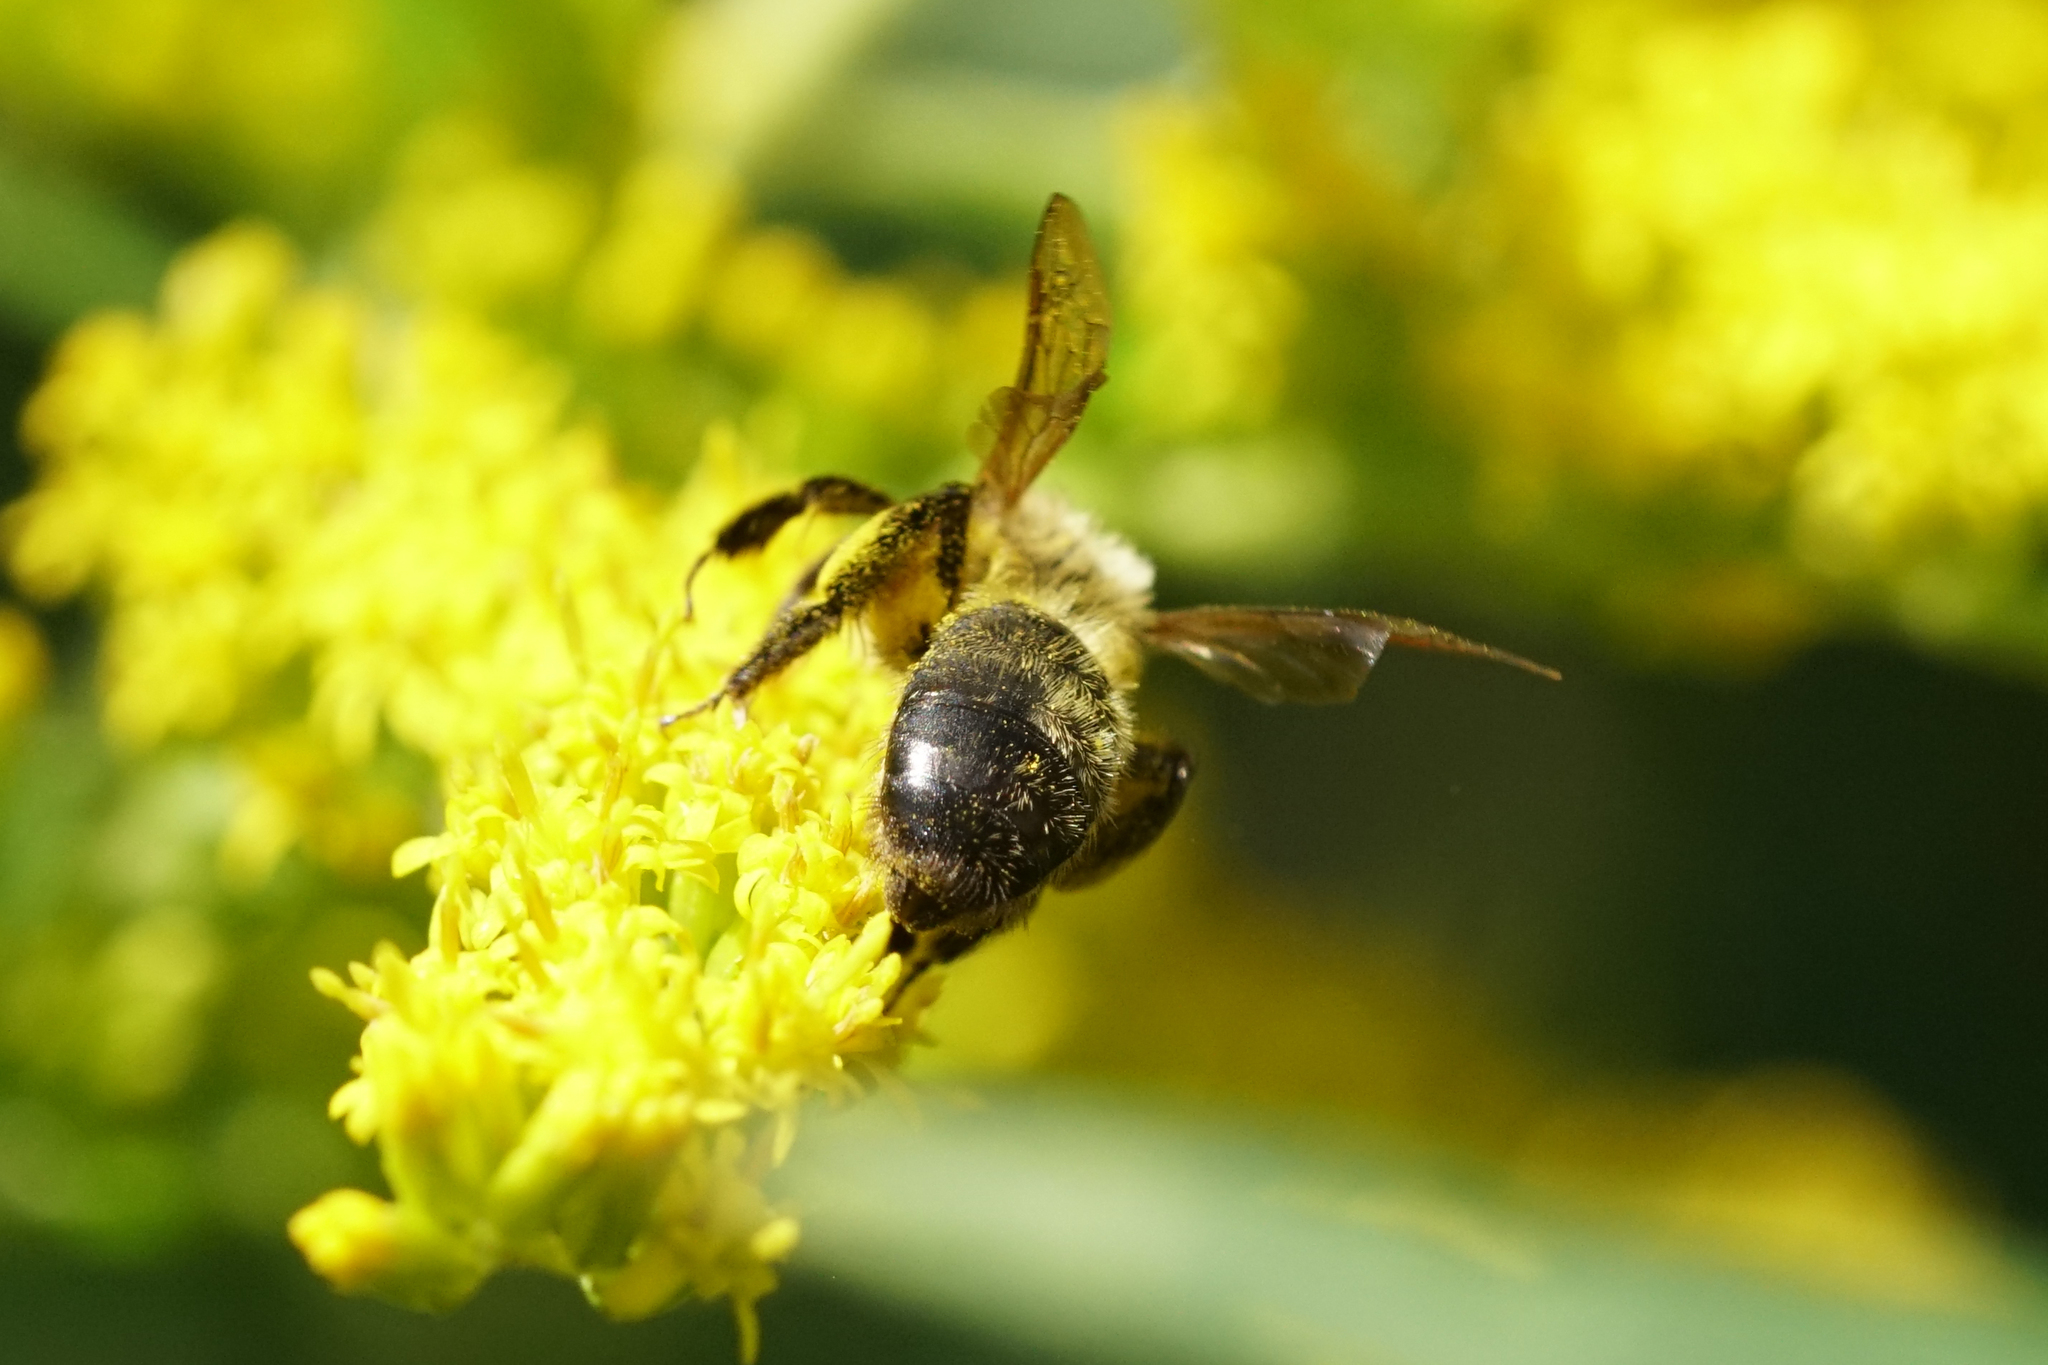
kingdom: Animalia
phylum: Arthropoda
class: Insecta
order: Hymenoptera
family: Andrenidae
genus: Andrena
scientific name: Andrena hirticincta
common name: Hairy-banded mining bee
